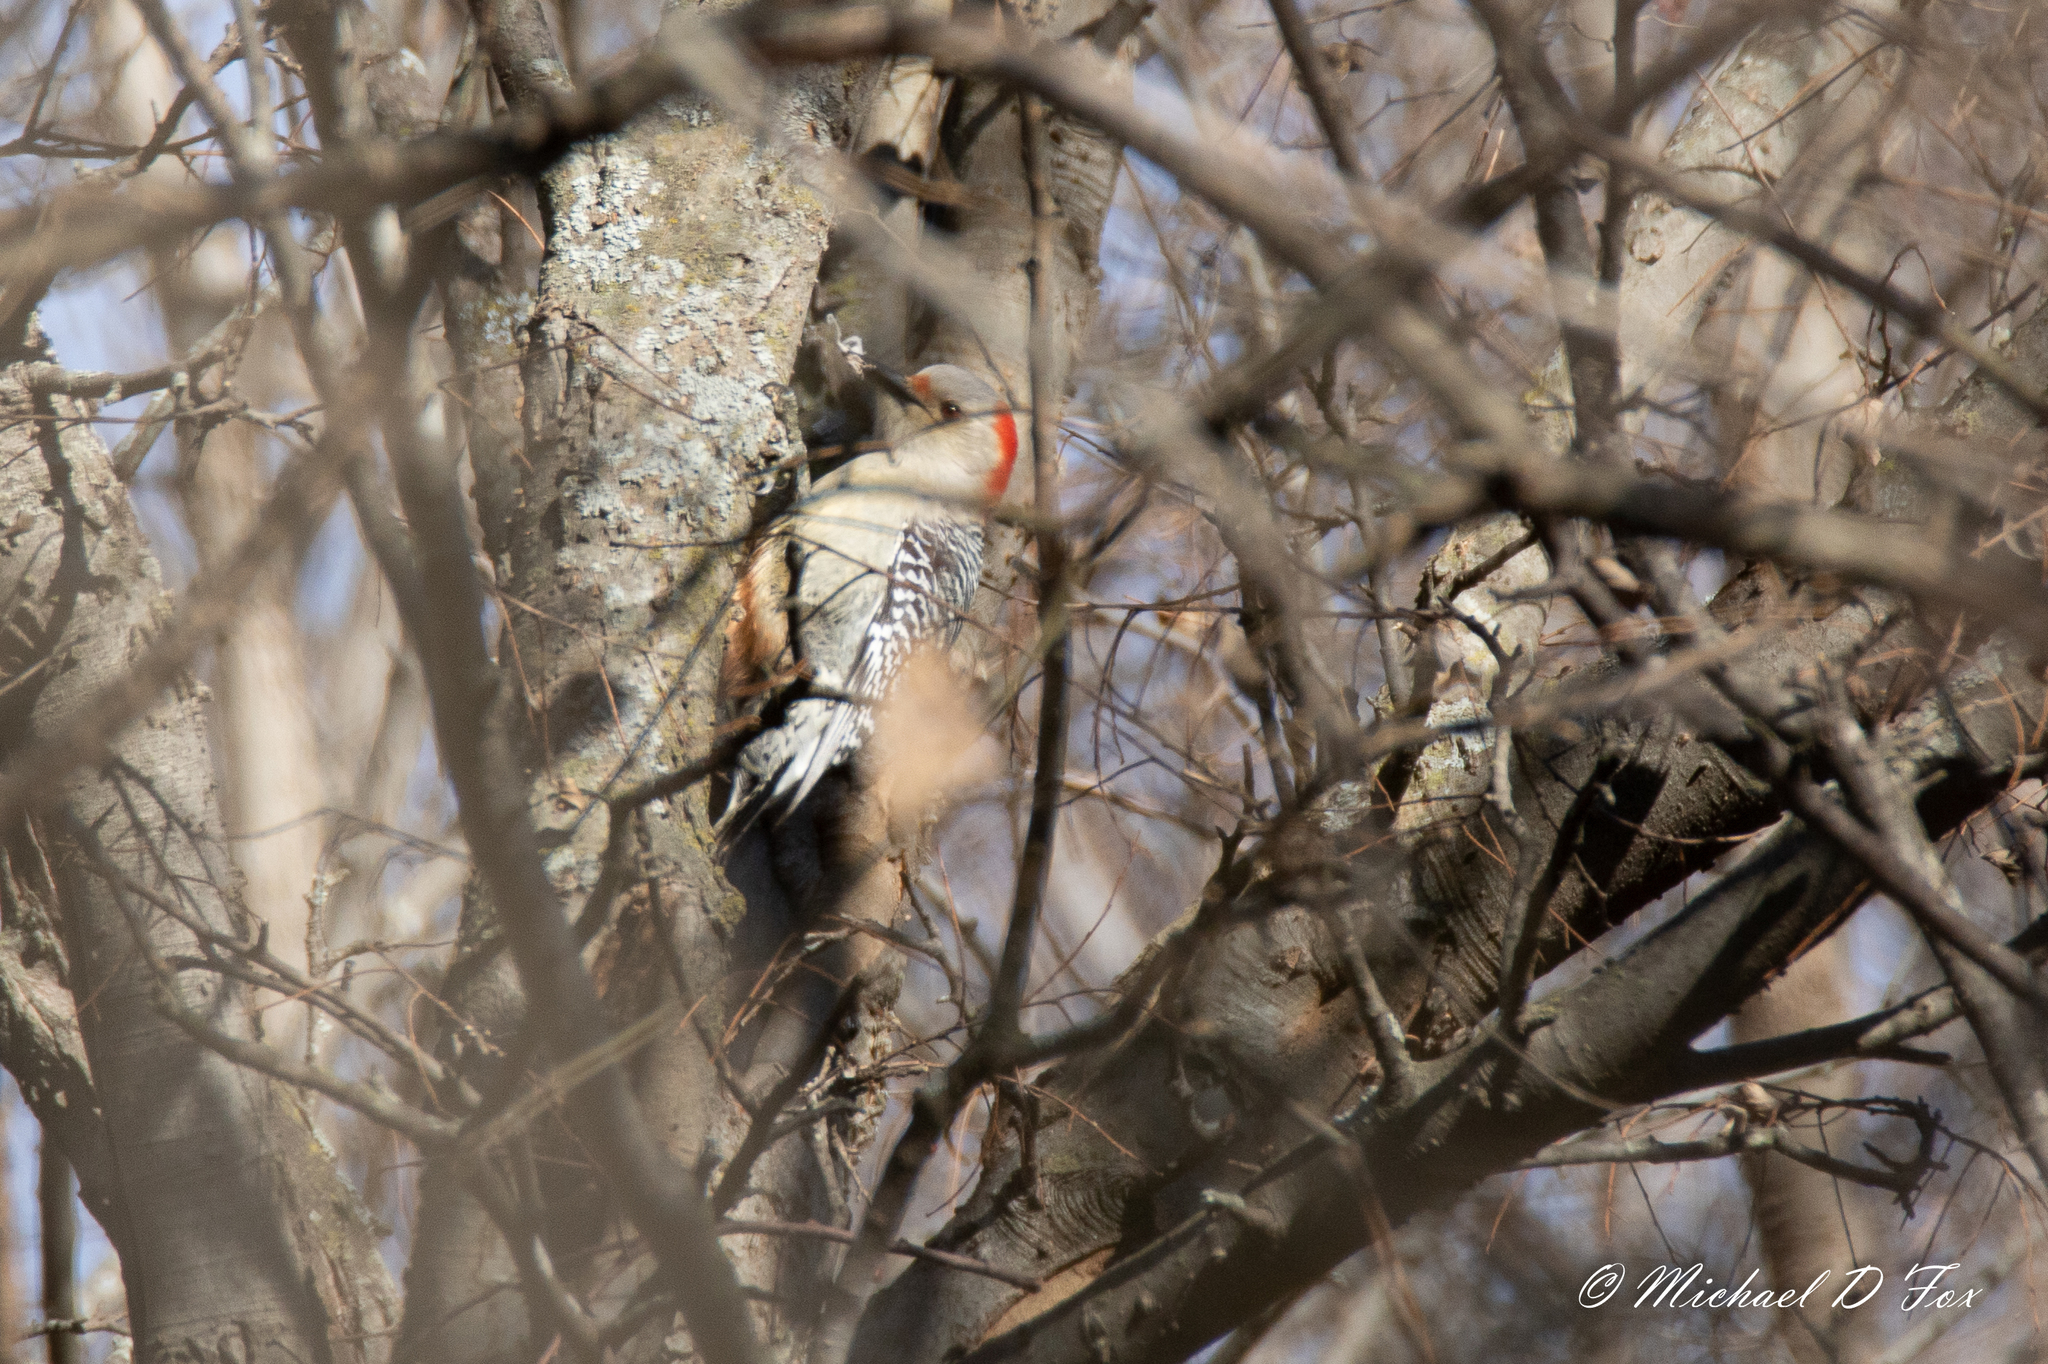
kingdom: Animalia
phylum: Chordata
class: Aves
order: Piciformes
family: Picidae
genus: Melanerpes
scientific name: Melanerpes carolinus
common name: Red-bellied woodpecker
